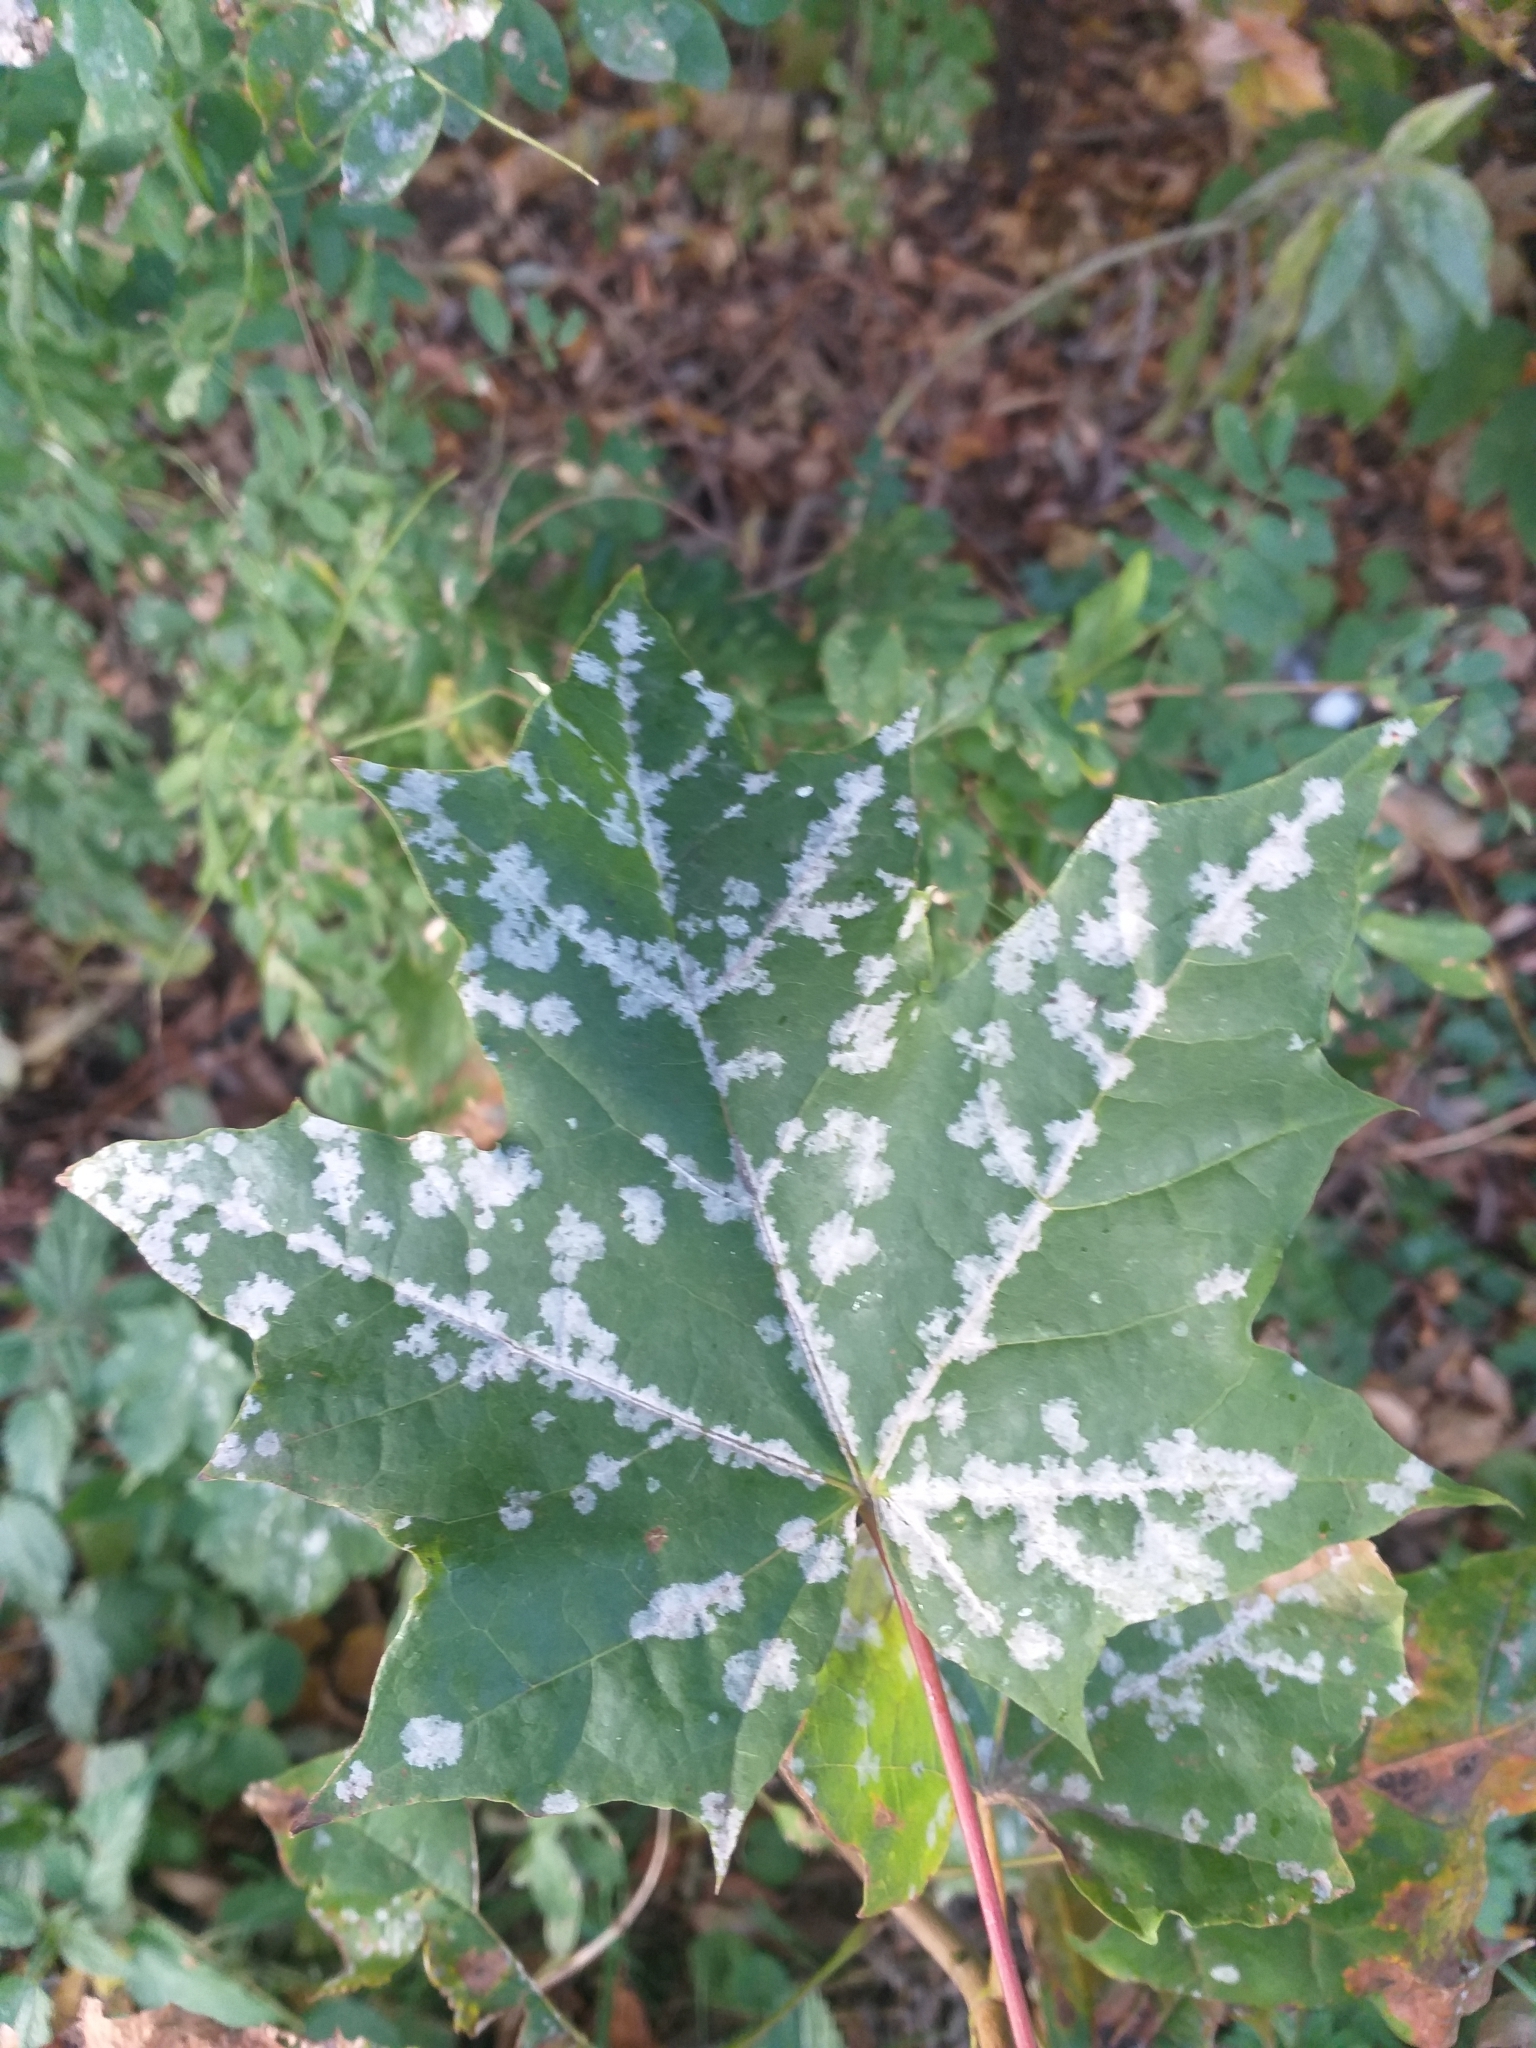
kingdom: Fungi
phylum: Ascomycota
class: Leotiomycetes
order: Helotiales
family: Erysiphaceae
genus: Sawadaea
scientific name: Sawadaea tulasnei
